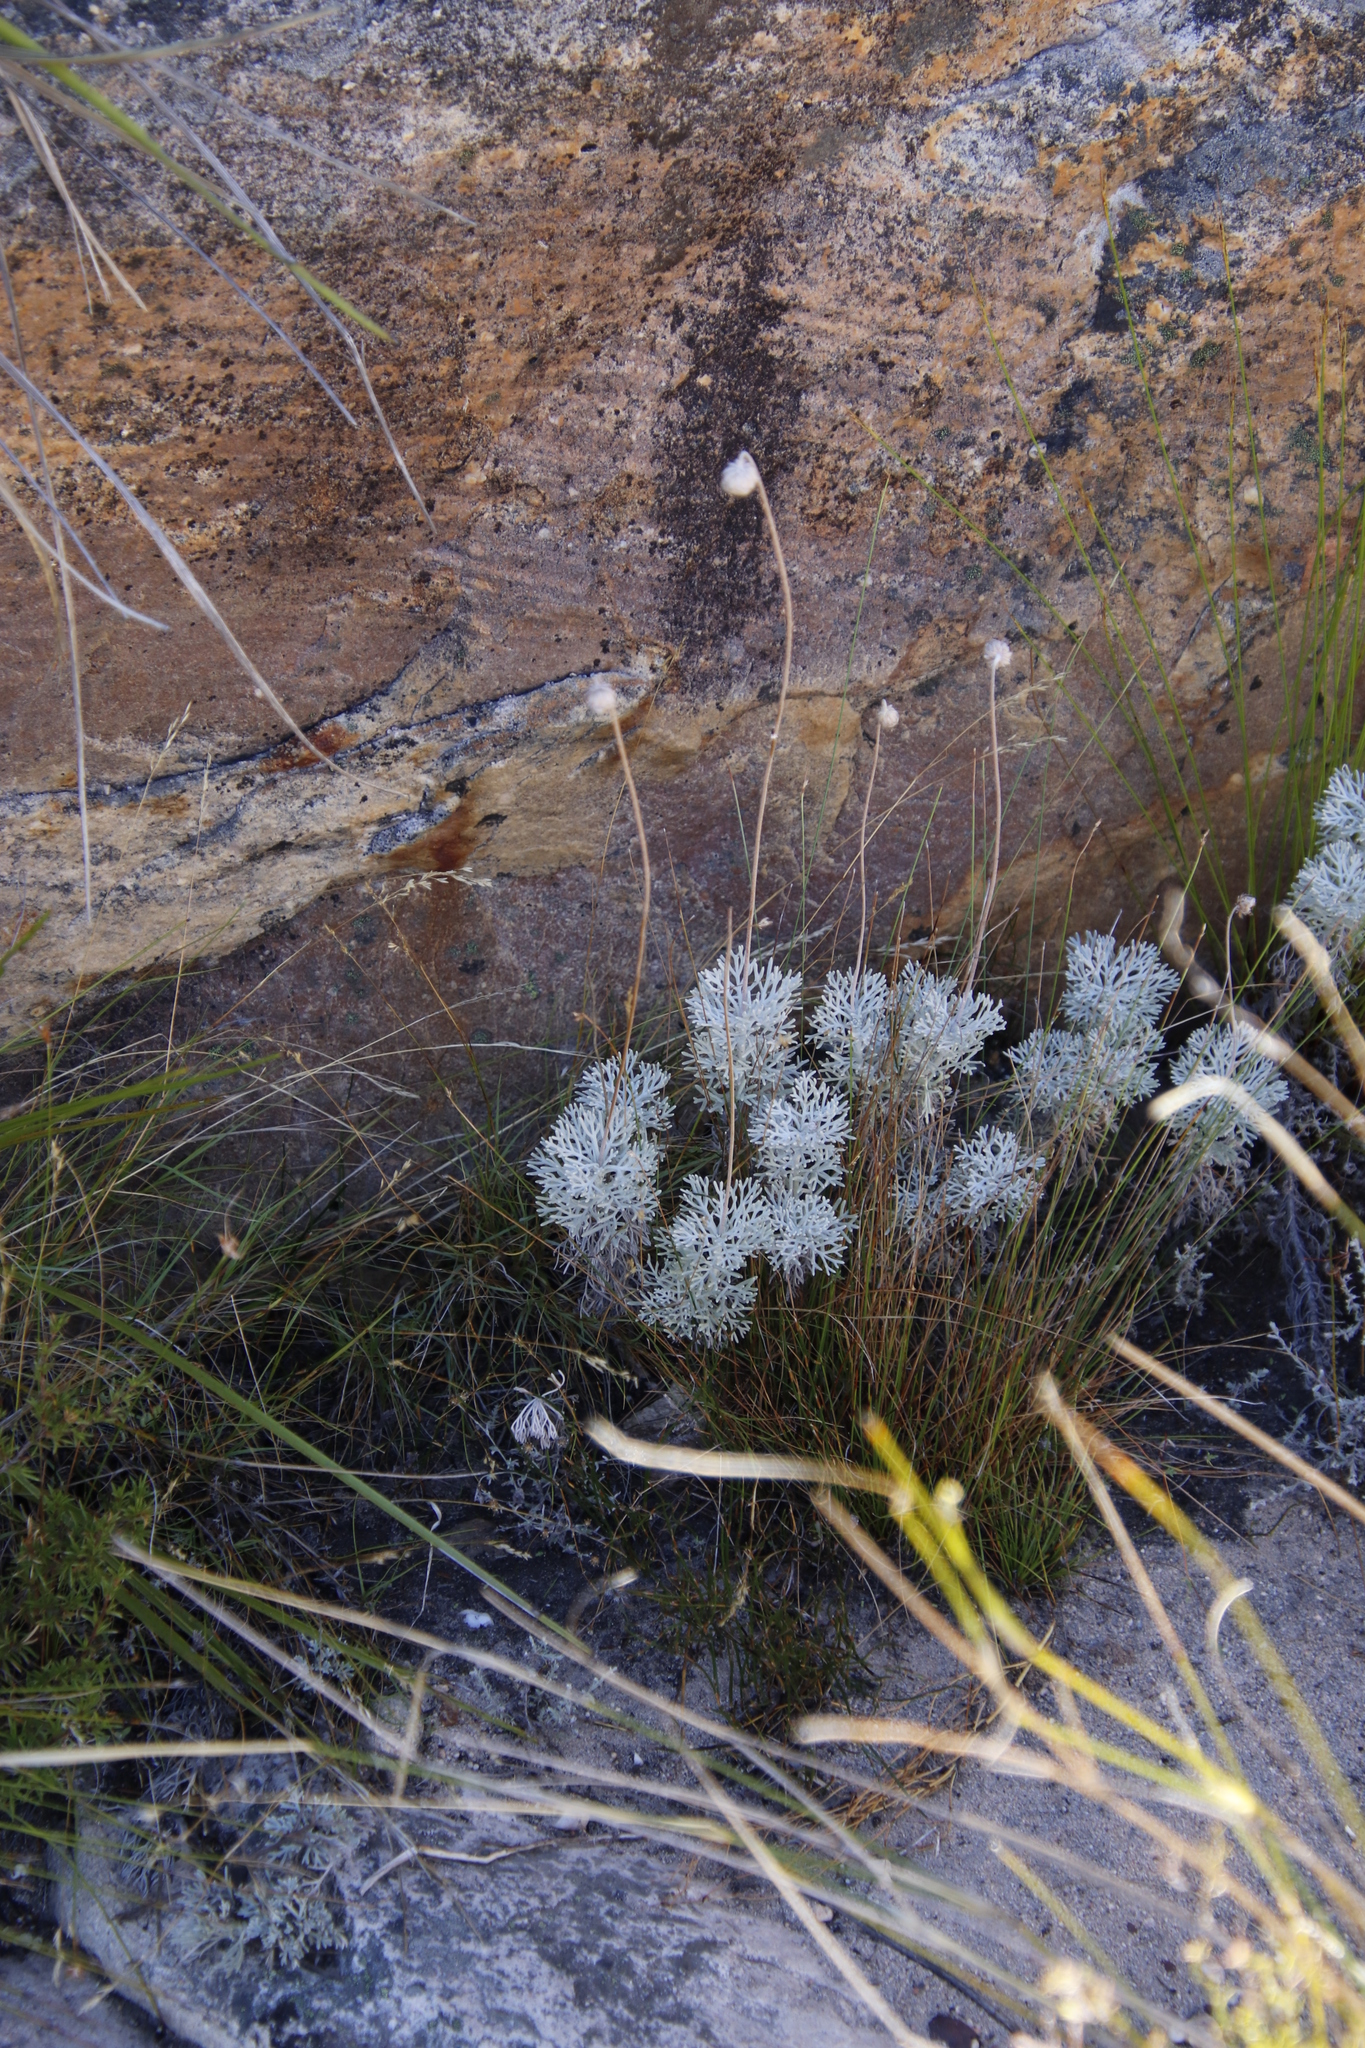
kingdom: Plantae
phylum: Tracheophyta
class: Magnoliopsida
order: Asterales
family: Asteraceae
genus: Ursinia
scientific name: Ursinia sericea
